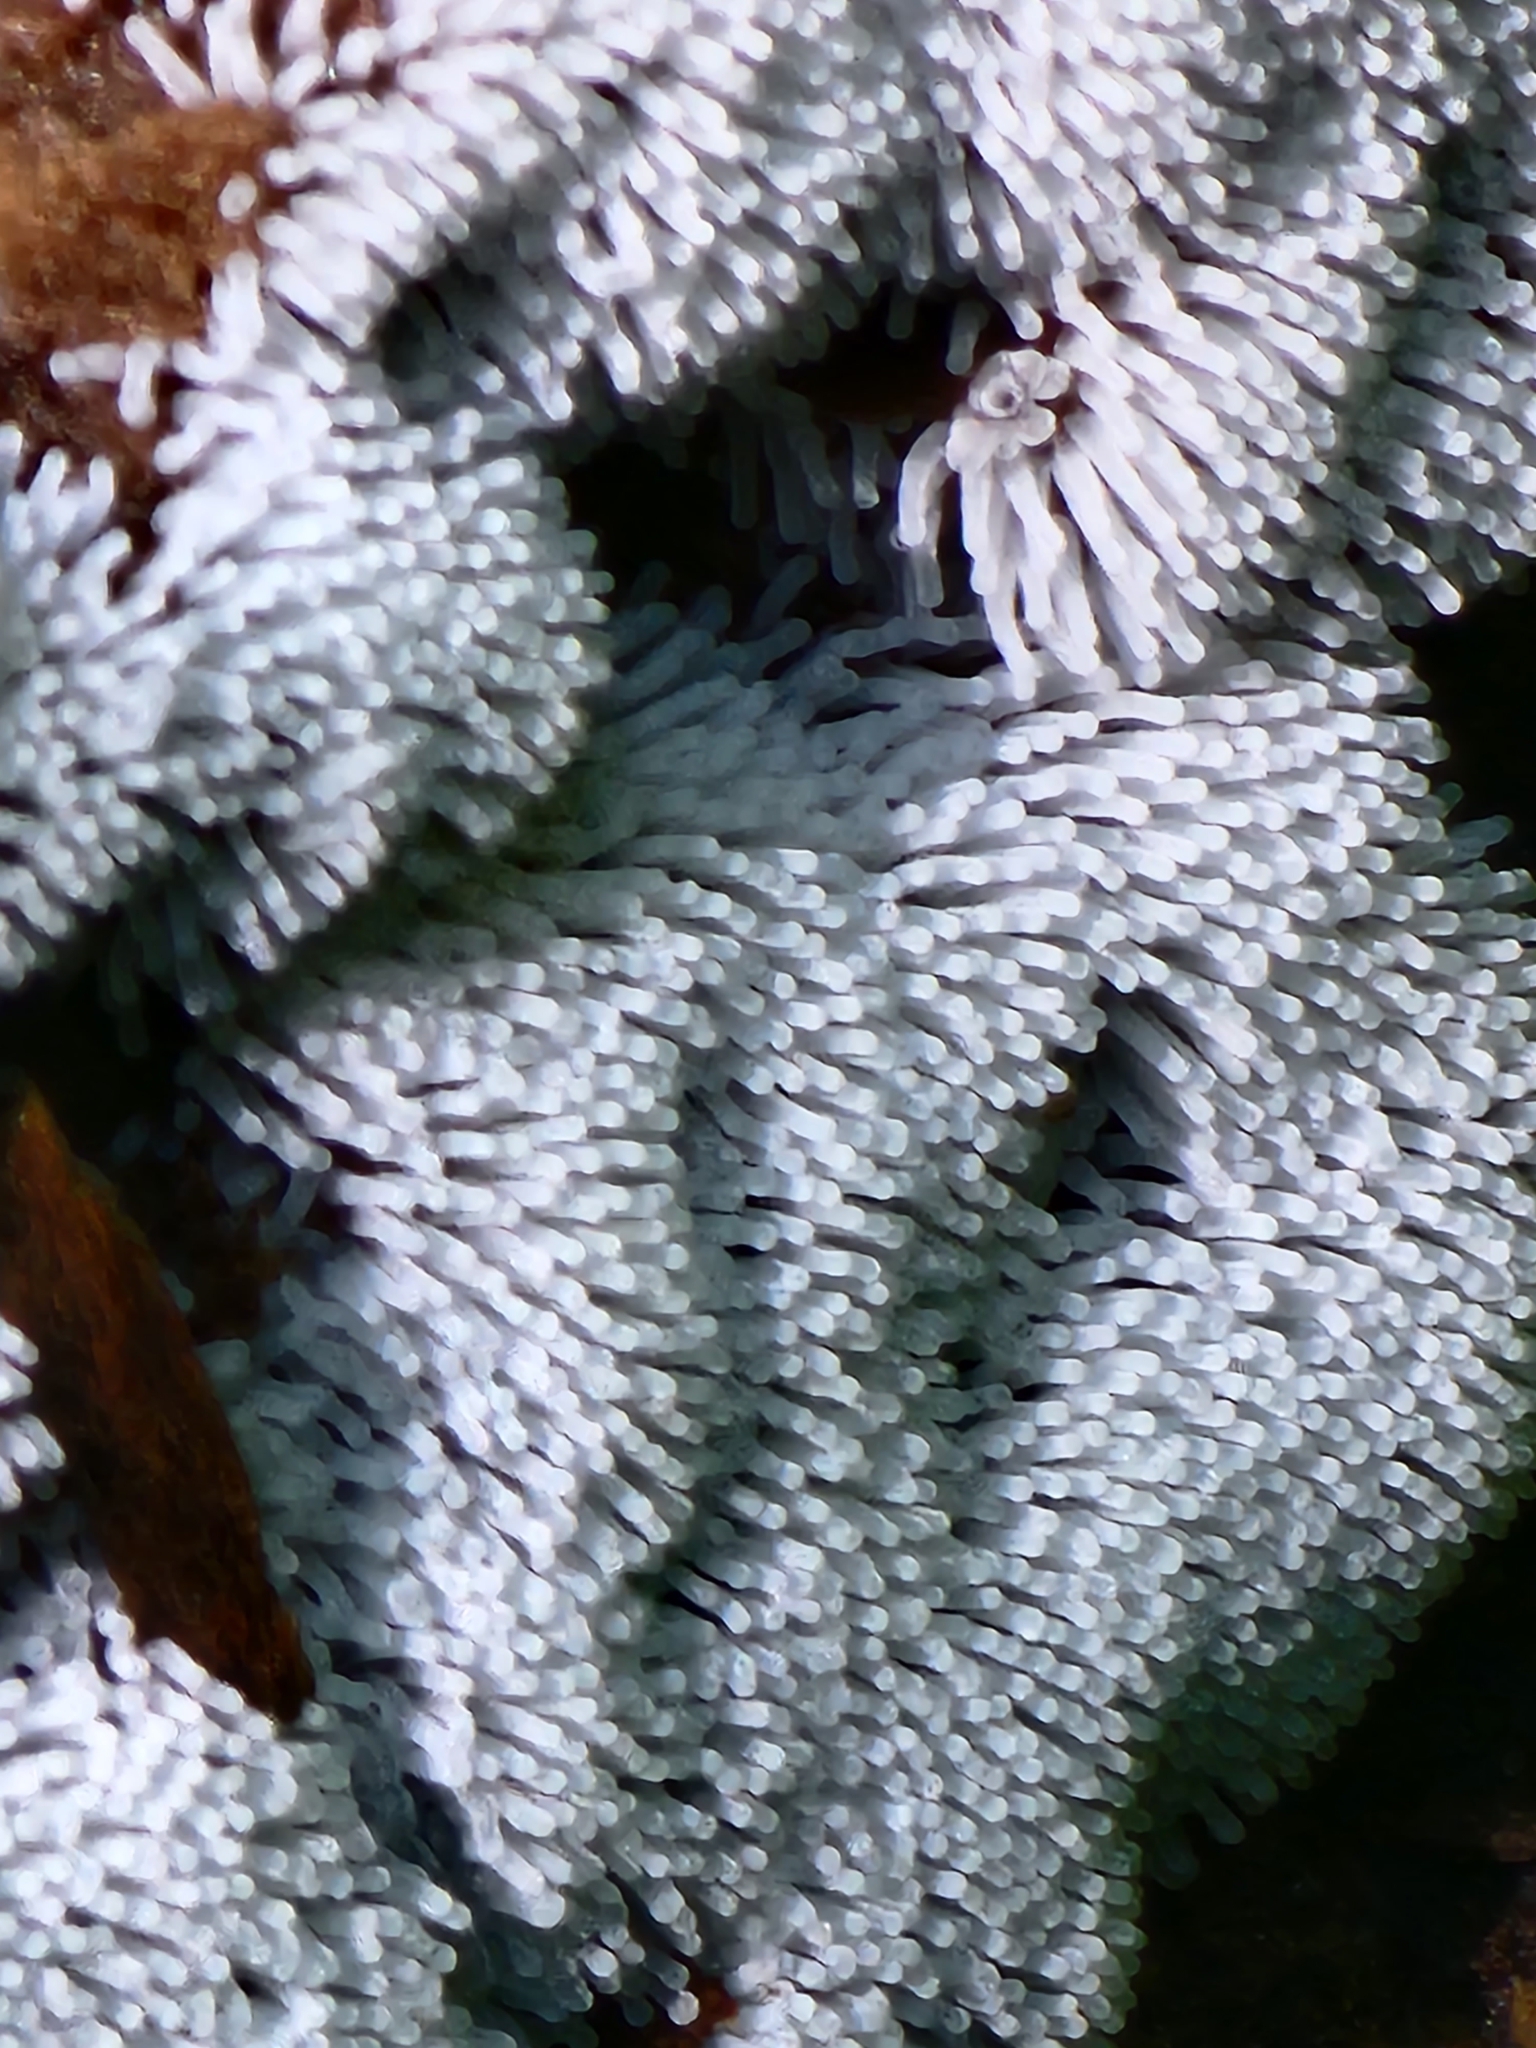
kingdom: Protozoa
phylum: Mycetozoa
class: Protosteliomycetes
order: Ceratiomyxales
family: Ceratiomyxaceae
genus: Ceratiomyxa
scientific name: Ceratiomyxa fruticulosa
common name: Honeycomb coral slime mold
